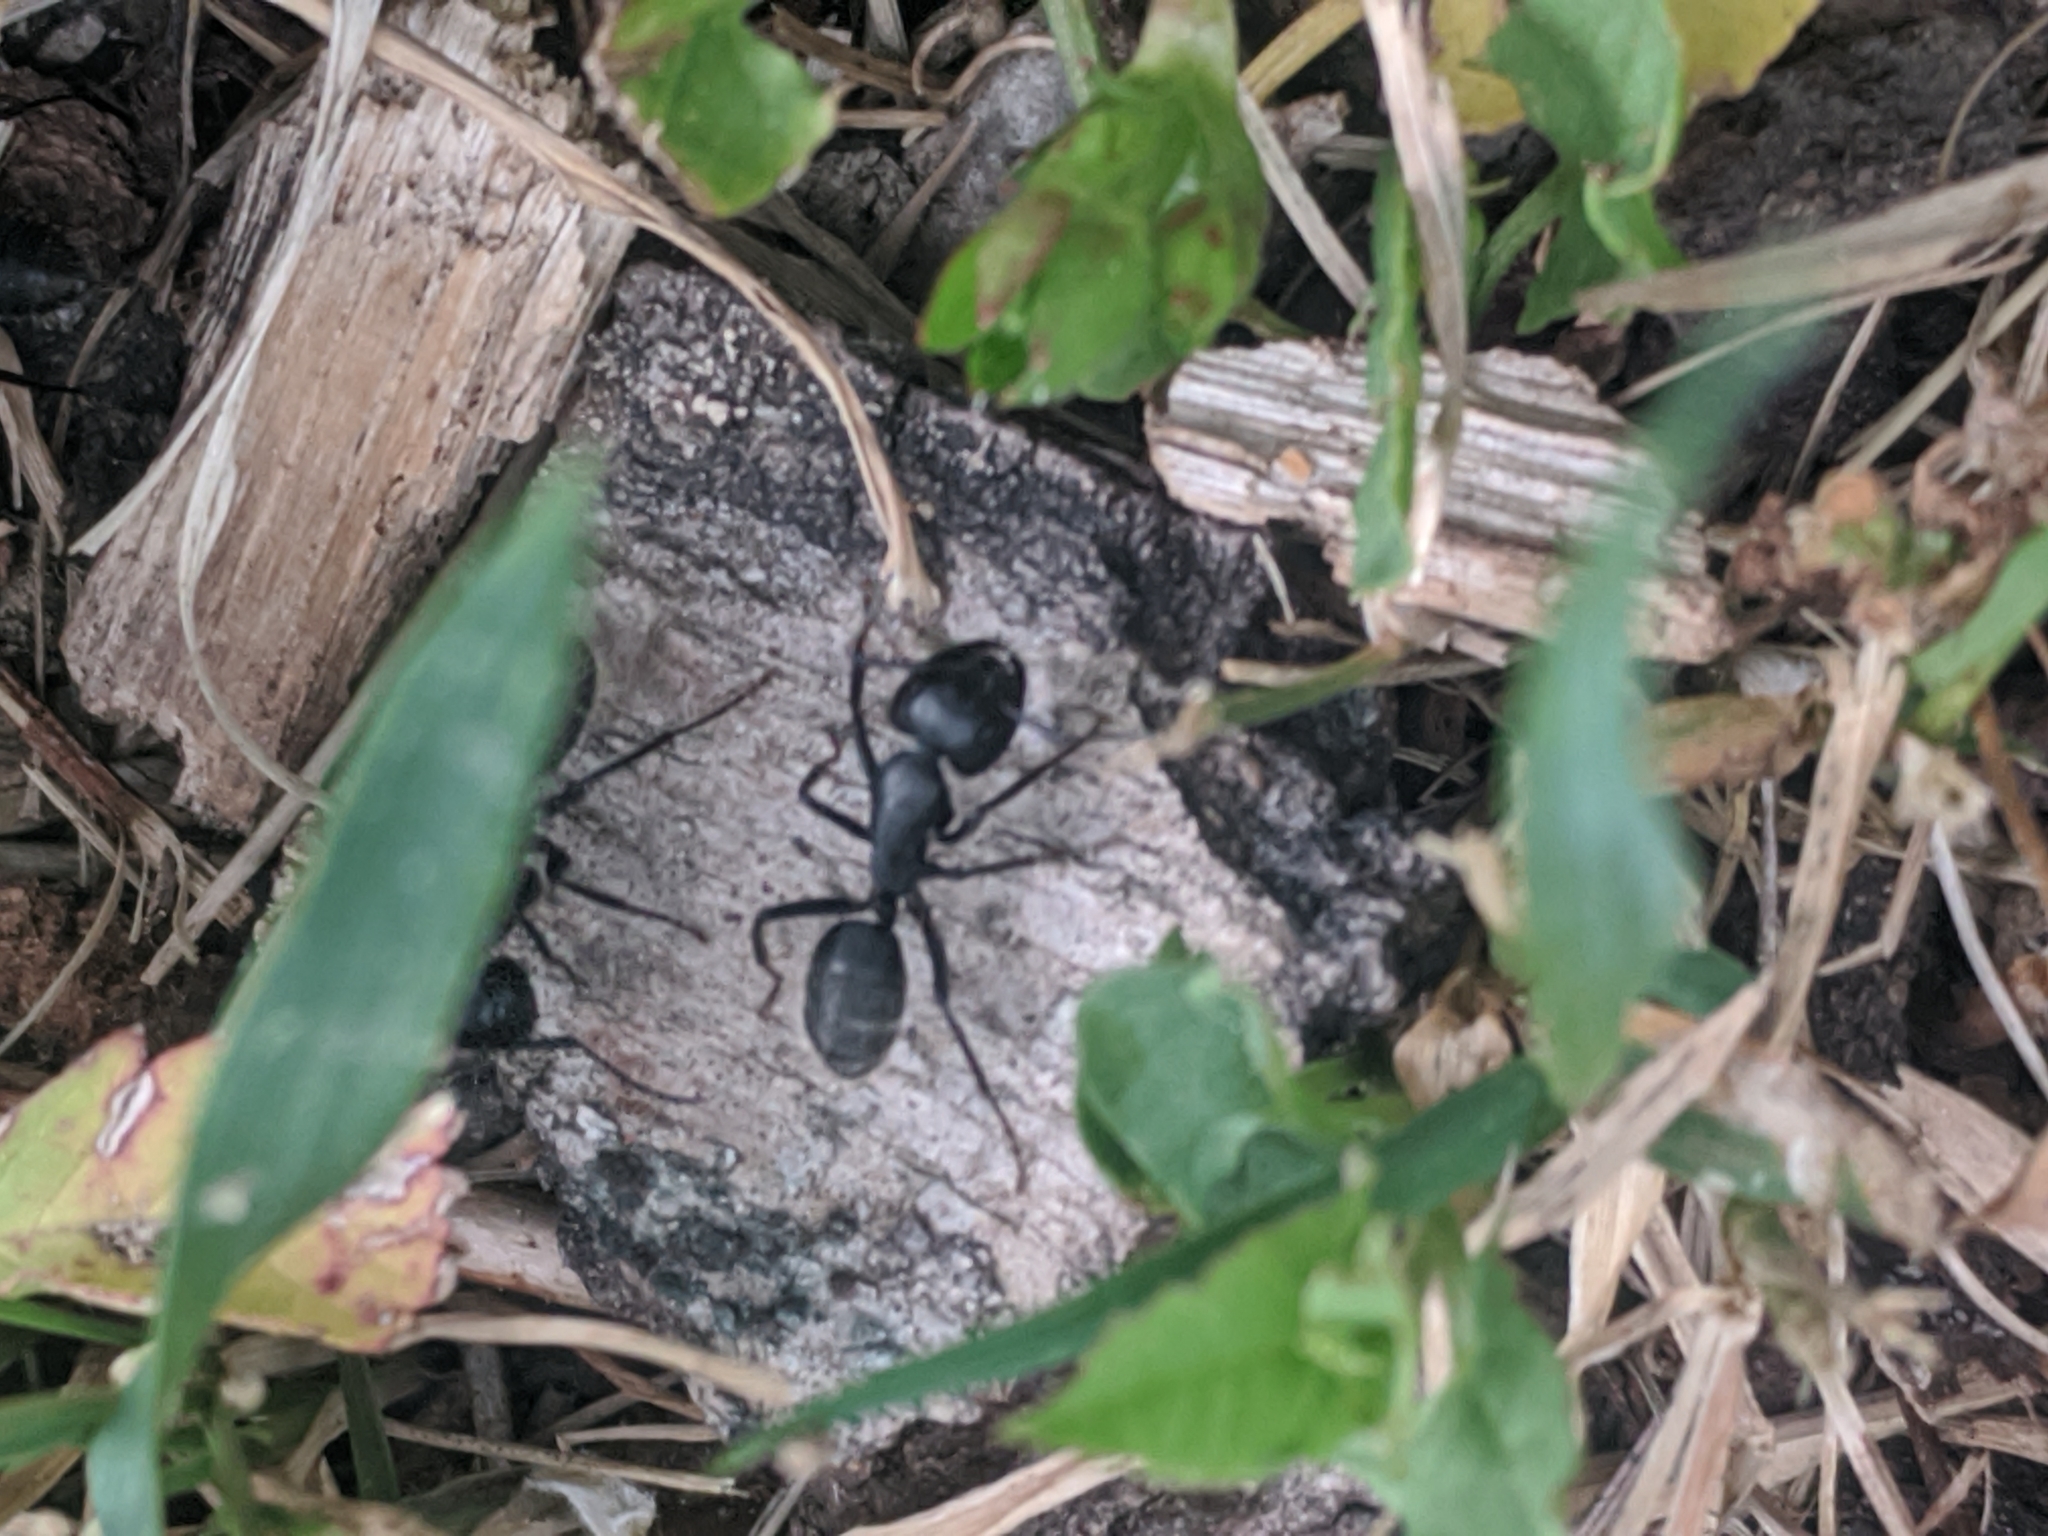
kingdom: Animalia
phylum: Arthropoda
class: Insecta
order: Hymenoptera
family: Formicidae
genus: Camponotus
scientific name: Camponotus vagus
